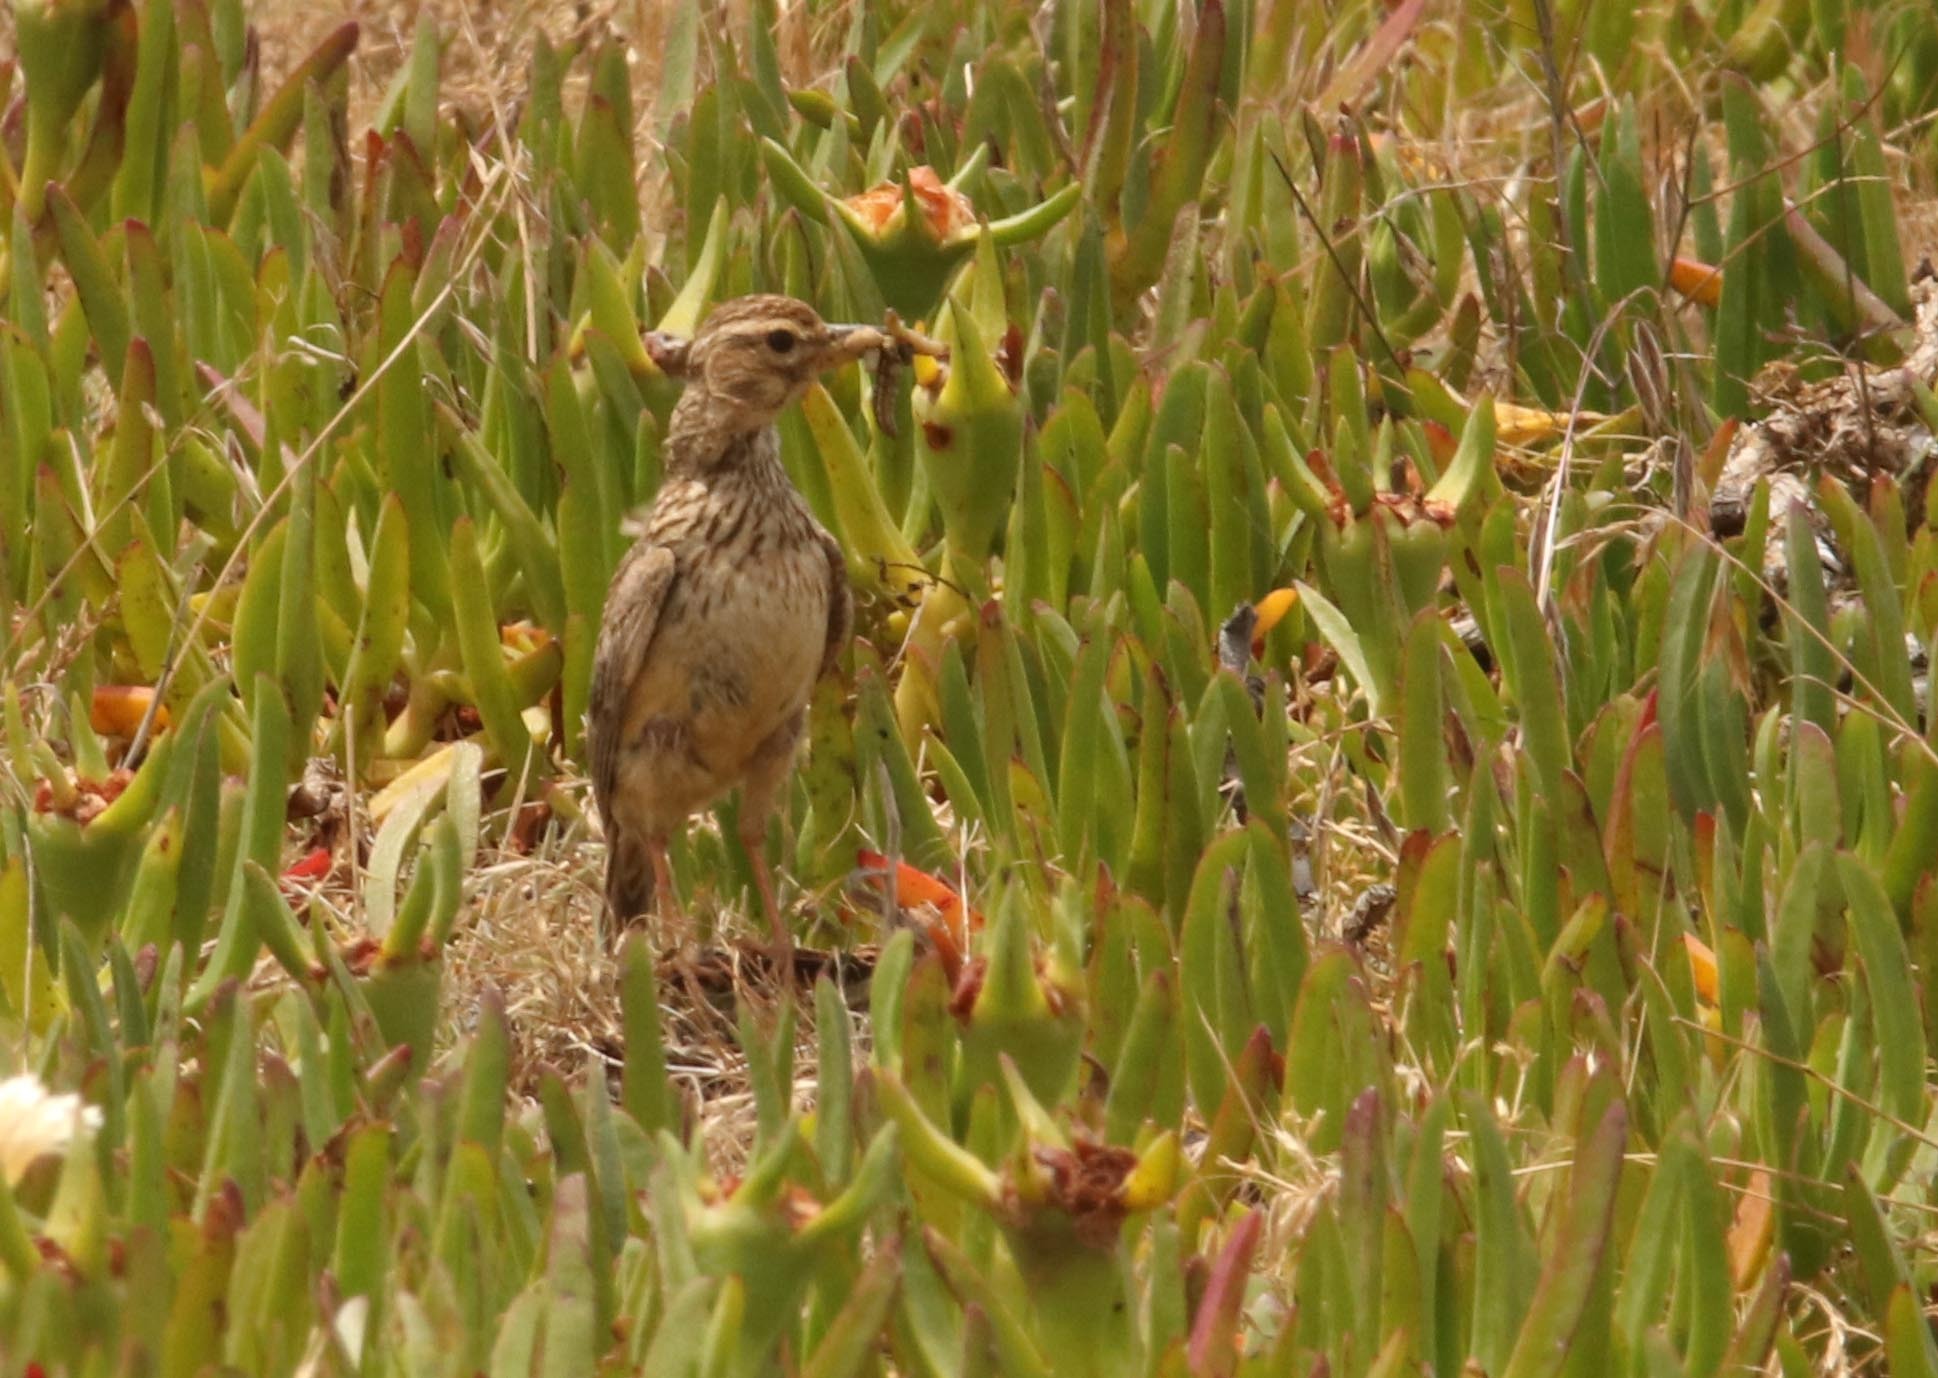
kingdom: Animalia
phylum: Chordata
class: Aves
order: Passeriformes
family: Motacillidae
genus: Anthus
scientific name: Anthus cinnamomeus
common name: African pipit
